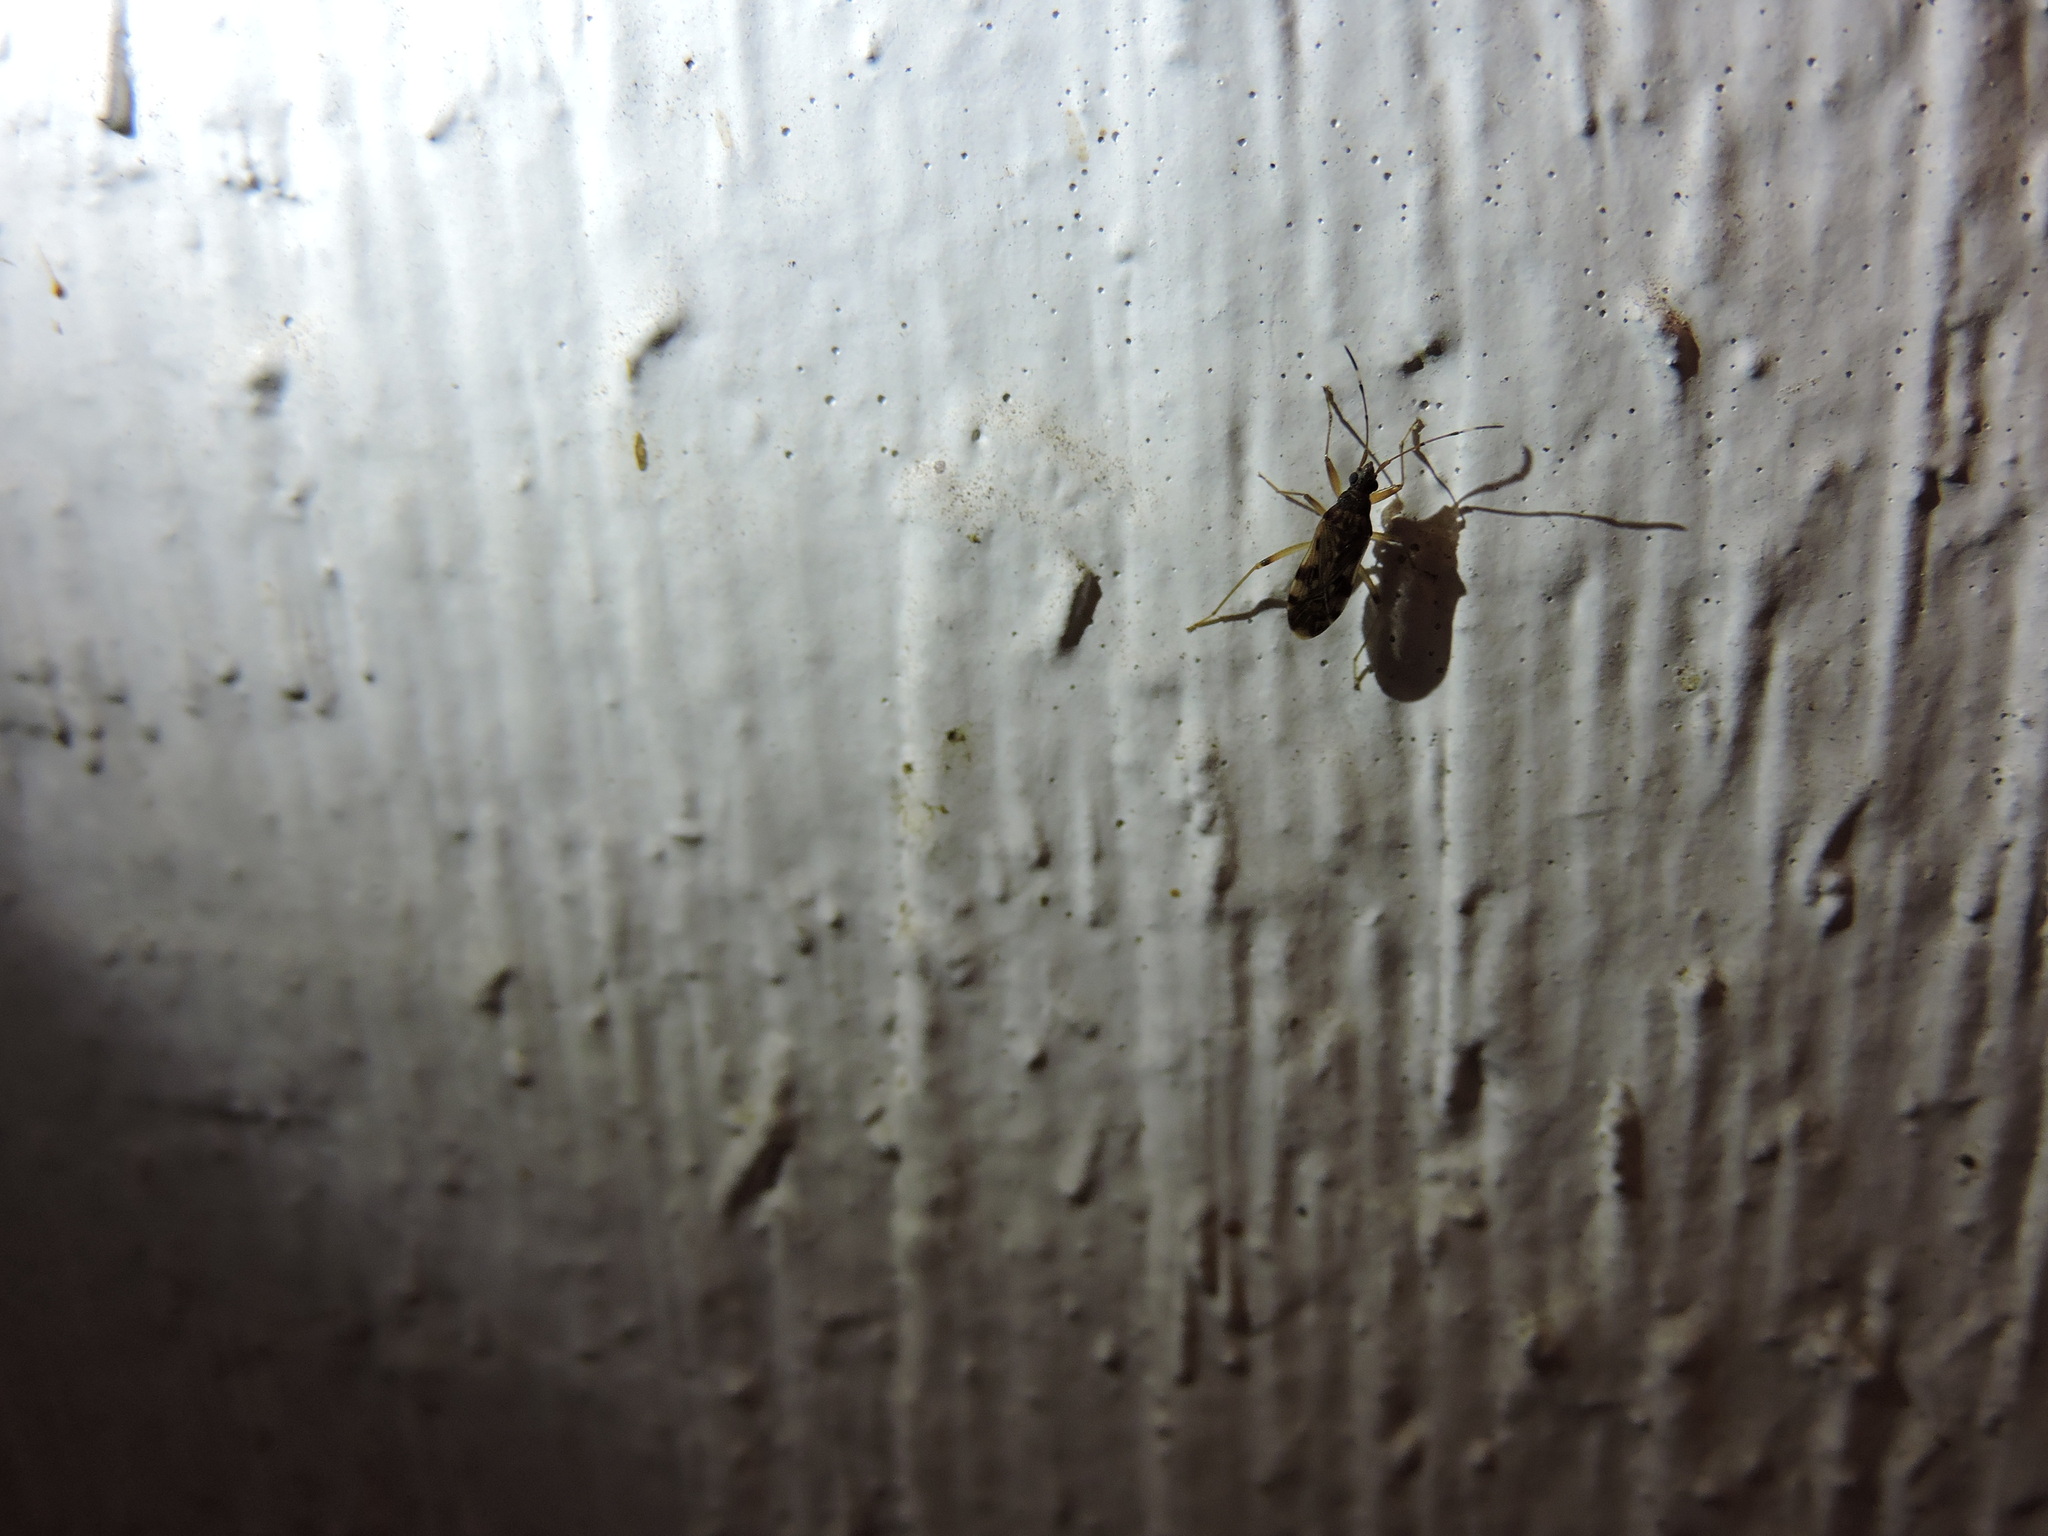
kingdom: Animalia
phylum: Arthropoda
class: Insecta
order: Hemiptera
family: Rhyparochromidae
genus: Ozophora
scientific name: Ozophora picturata
